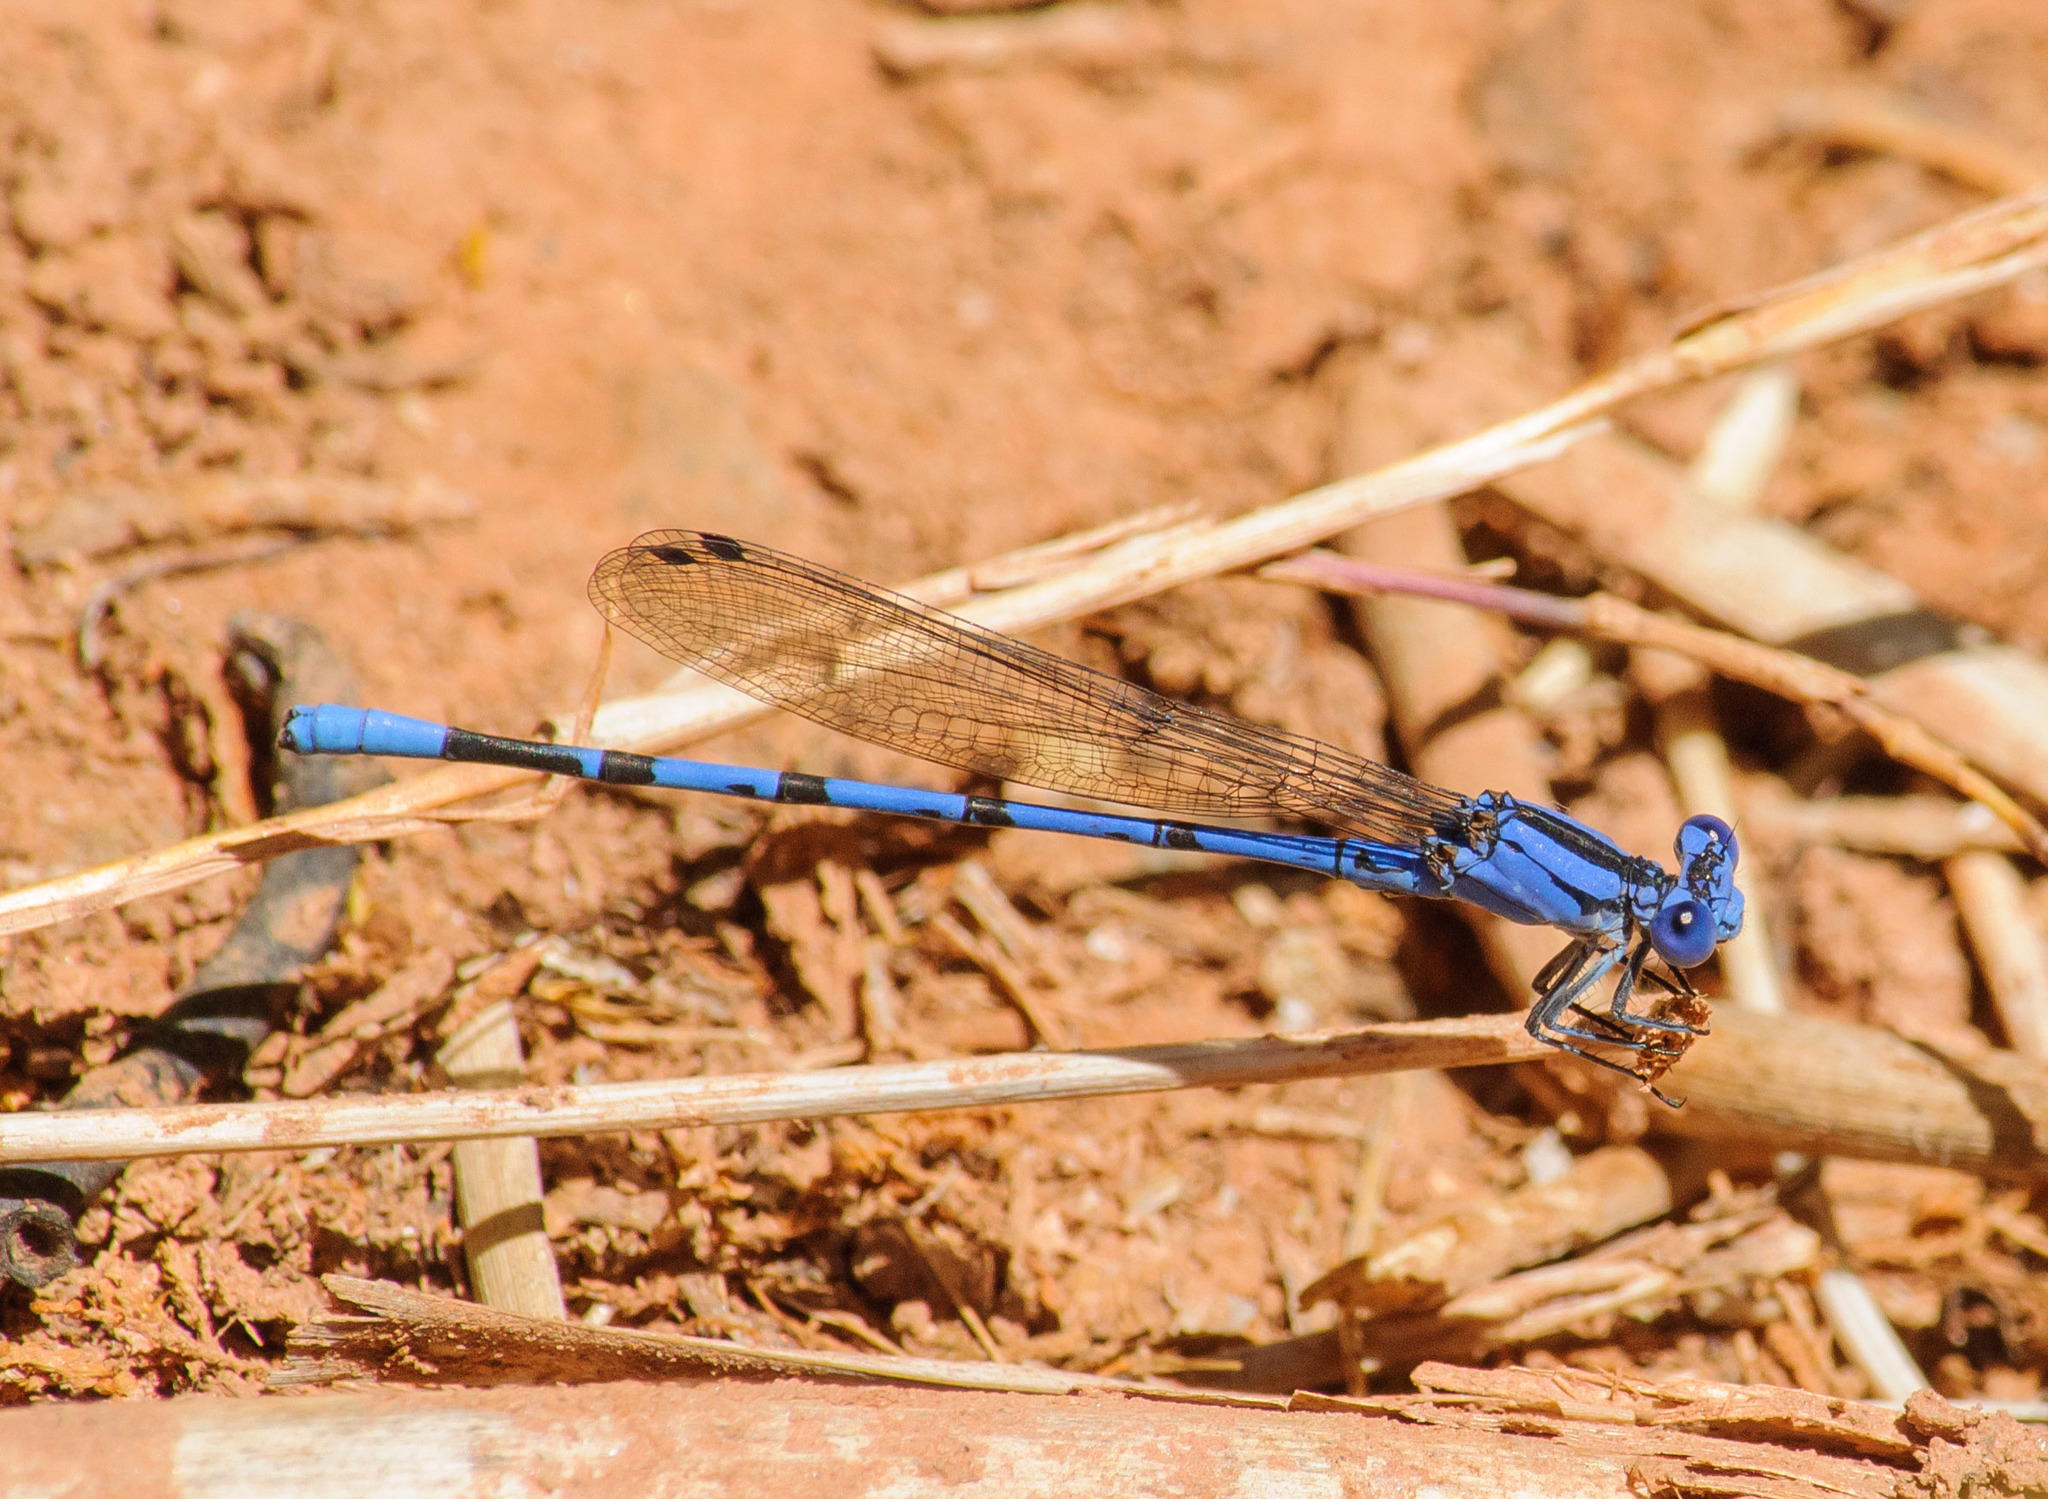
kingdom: Animalia
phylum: Arthropoda
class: Insecta
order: Odonata
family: Coenagrionidae
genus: Argia
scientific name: Argia vivida
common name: Vivid dancer
